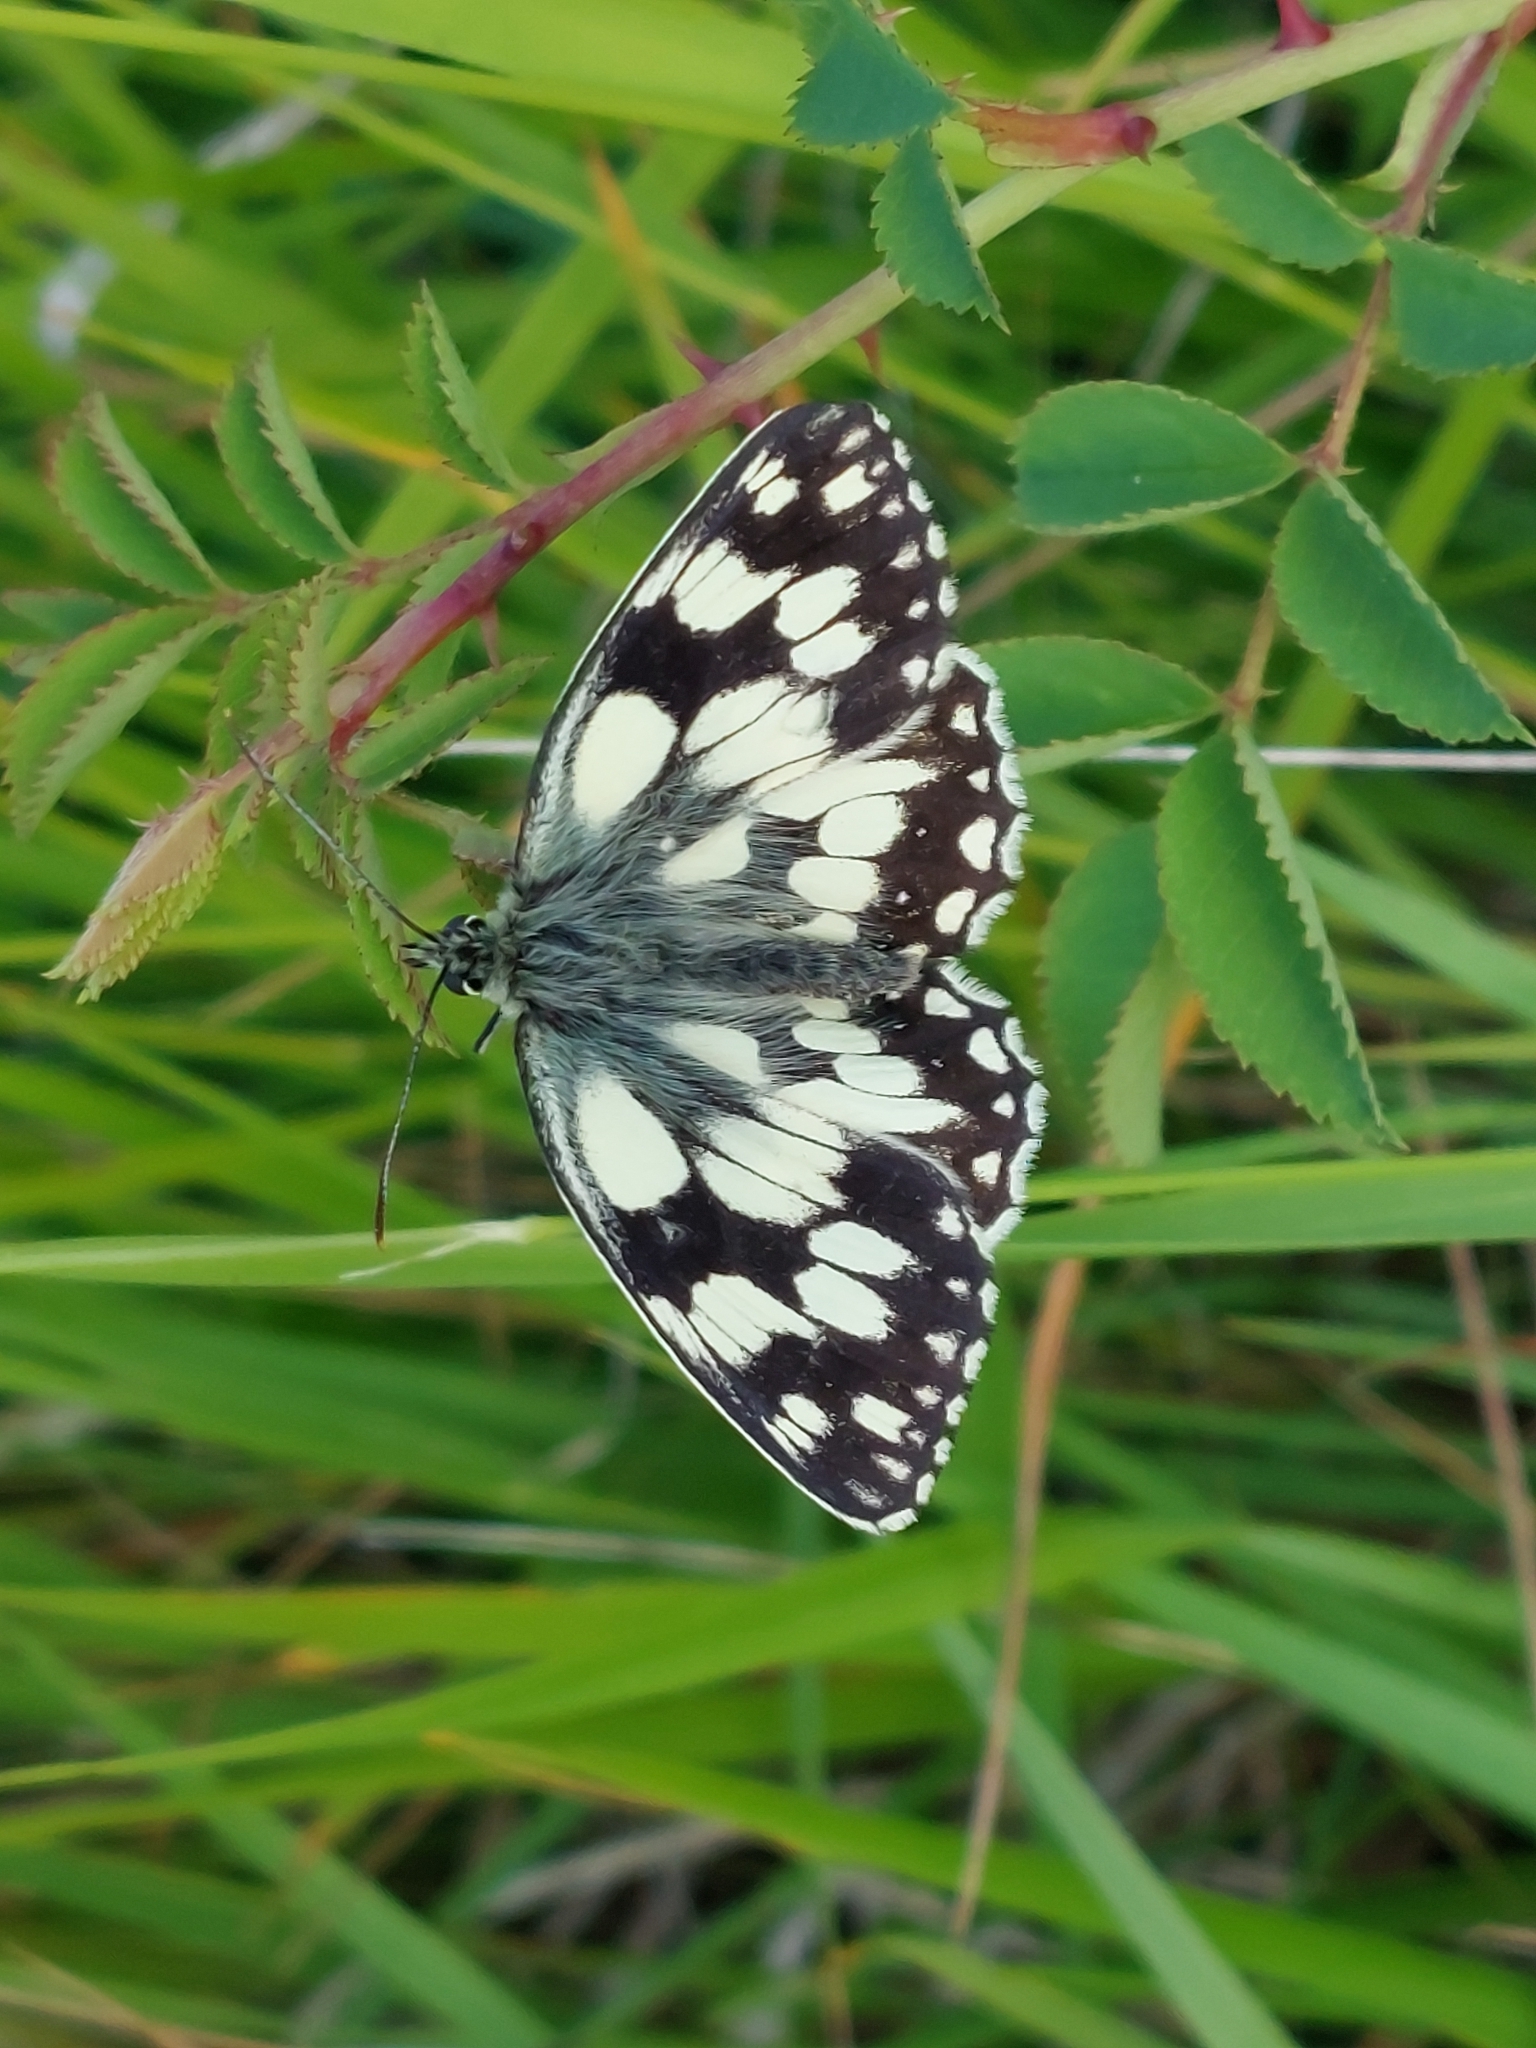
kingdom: Animalia
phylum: Arthropoda
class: Insecta
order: Lepidoptera
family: Nymphalidae
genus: Melanargia
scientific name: Melanargia galathea
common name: Marbled white
